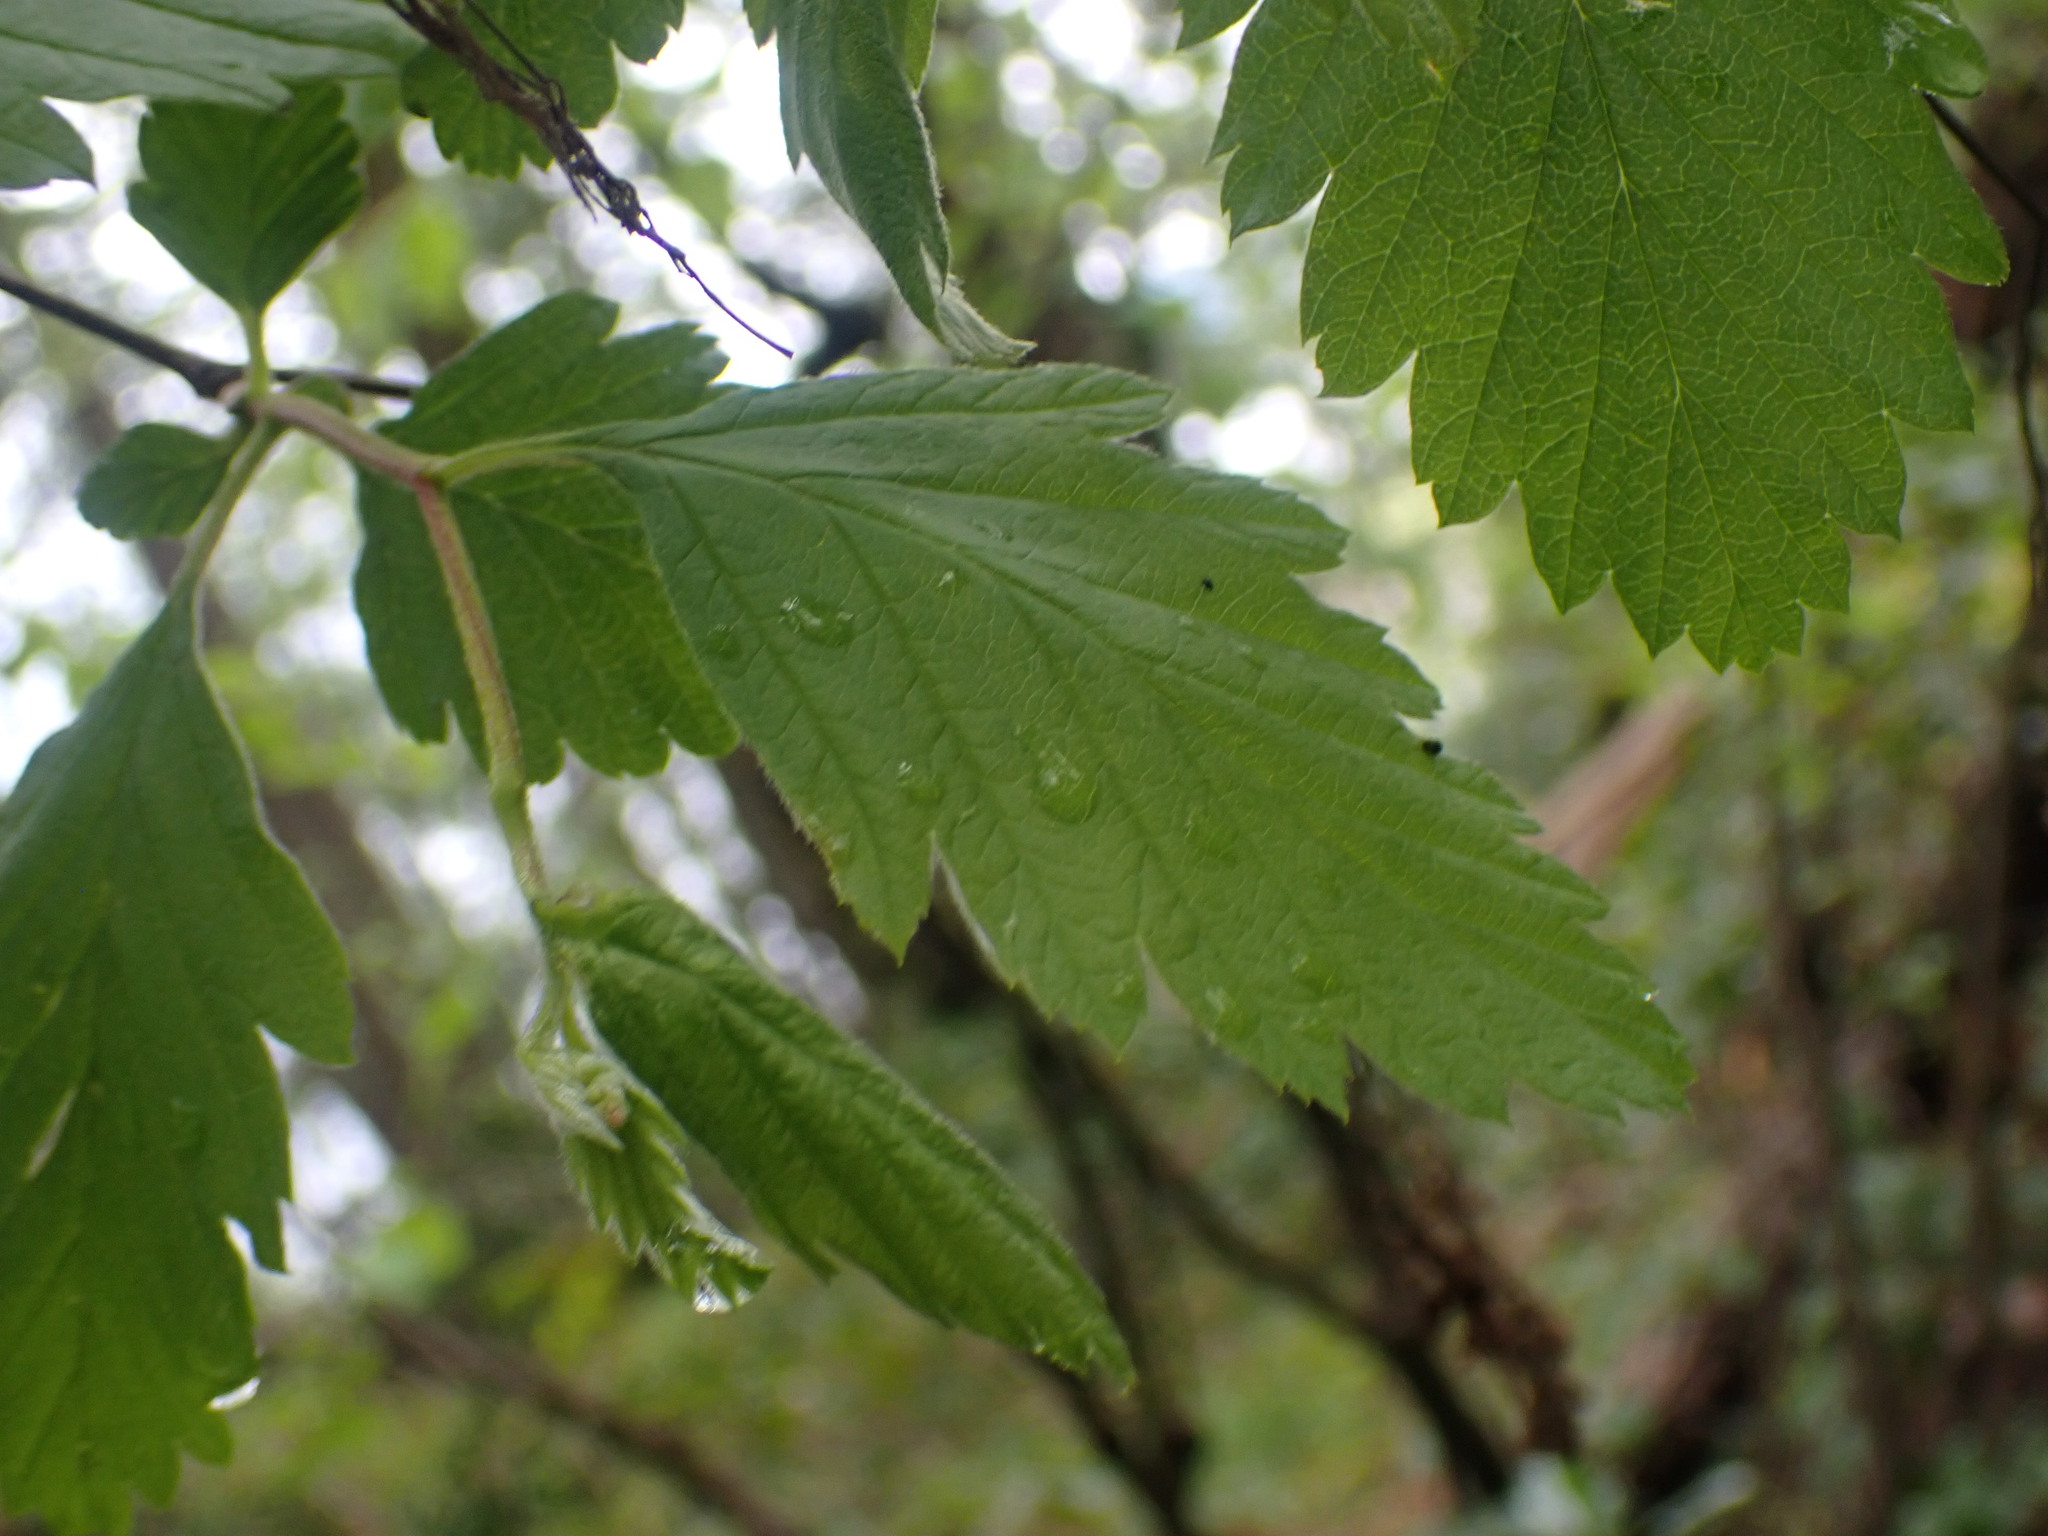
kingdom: Plantae
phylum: Tracheophyta
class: Magnoliopsida
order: Rosales
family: Rosaceae
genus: Holodiscus
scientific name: Holodiscus discolor
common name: Oceanspray
